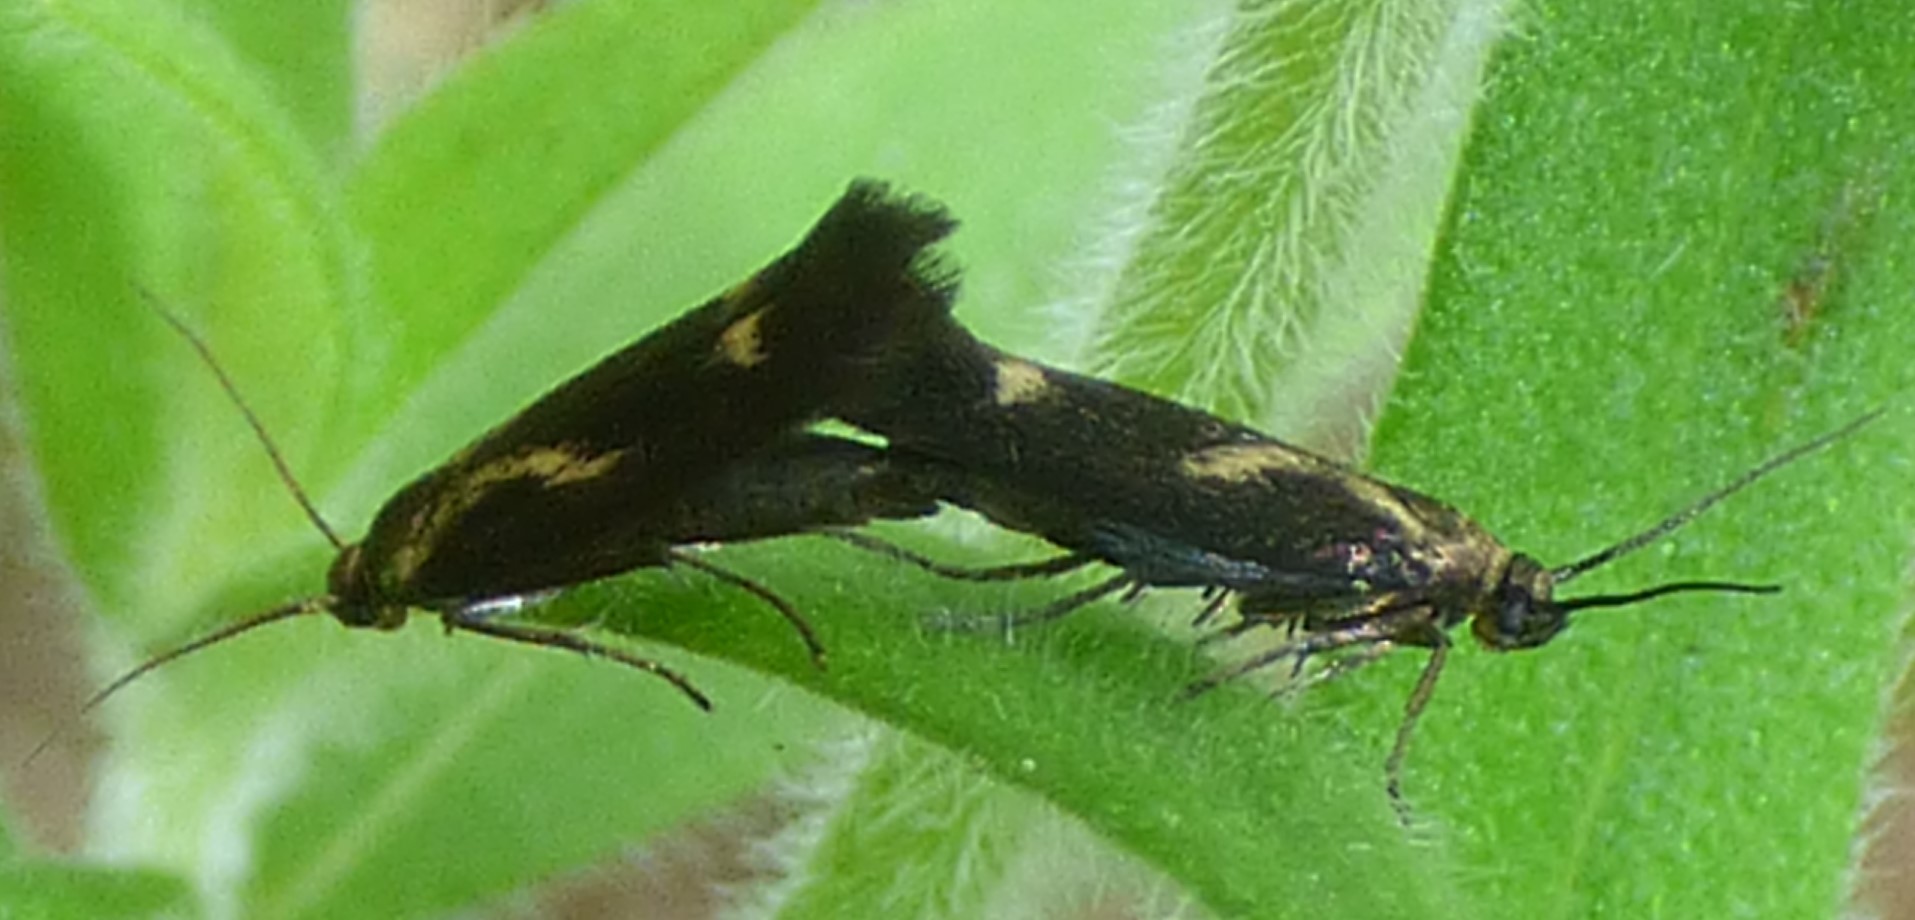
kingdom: Animalia
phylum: Arthropoda
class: Insecta
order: Lepidoptera
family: Scythrididae
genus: Landryia
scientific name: Landryia impositella
